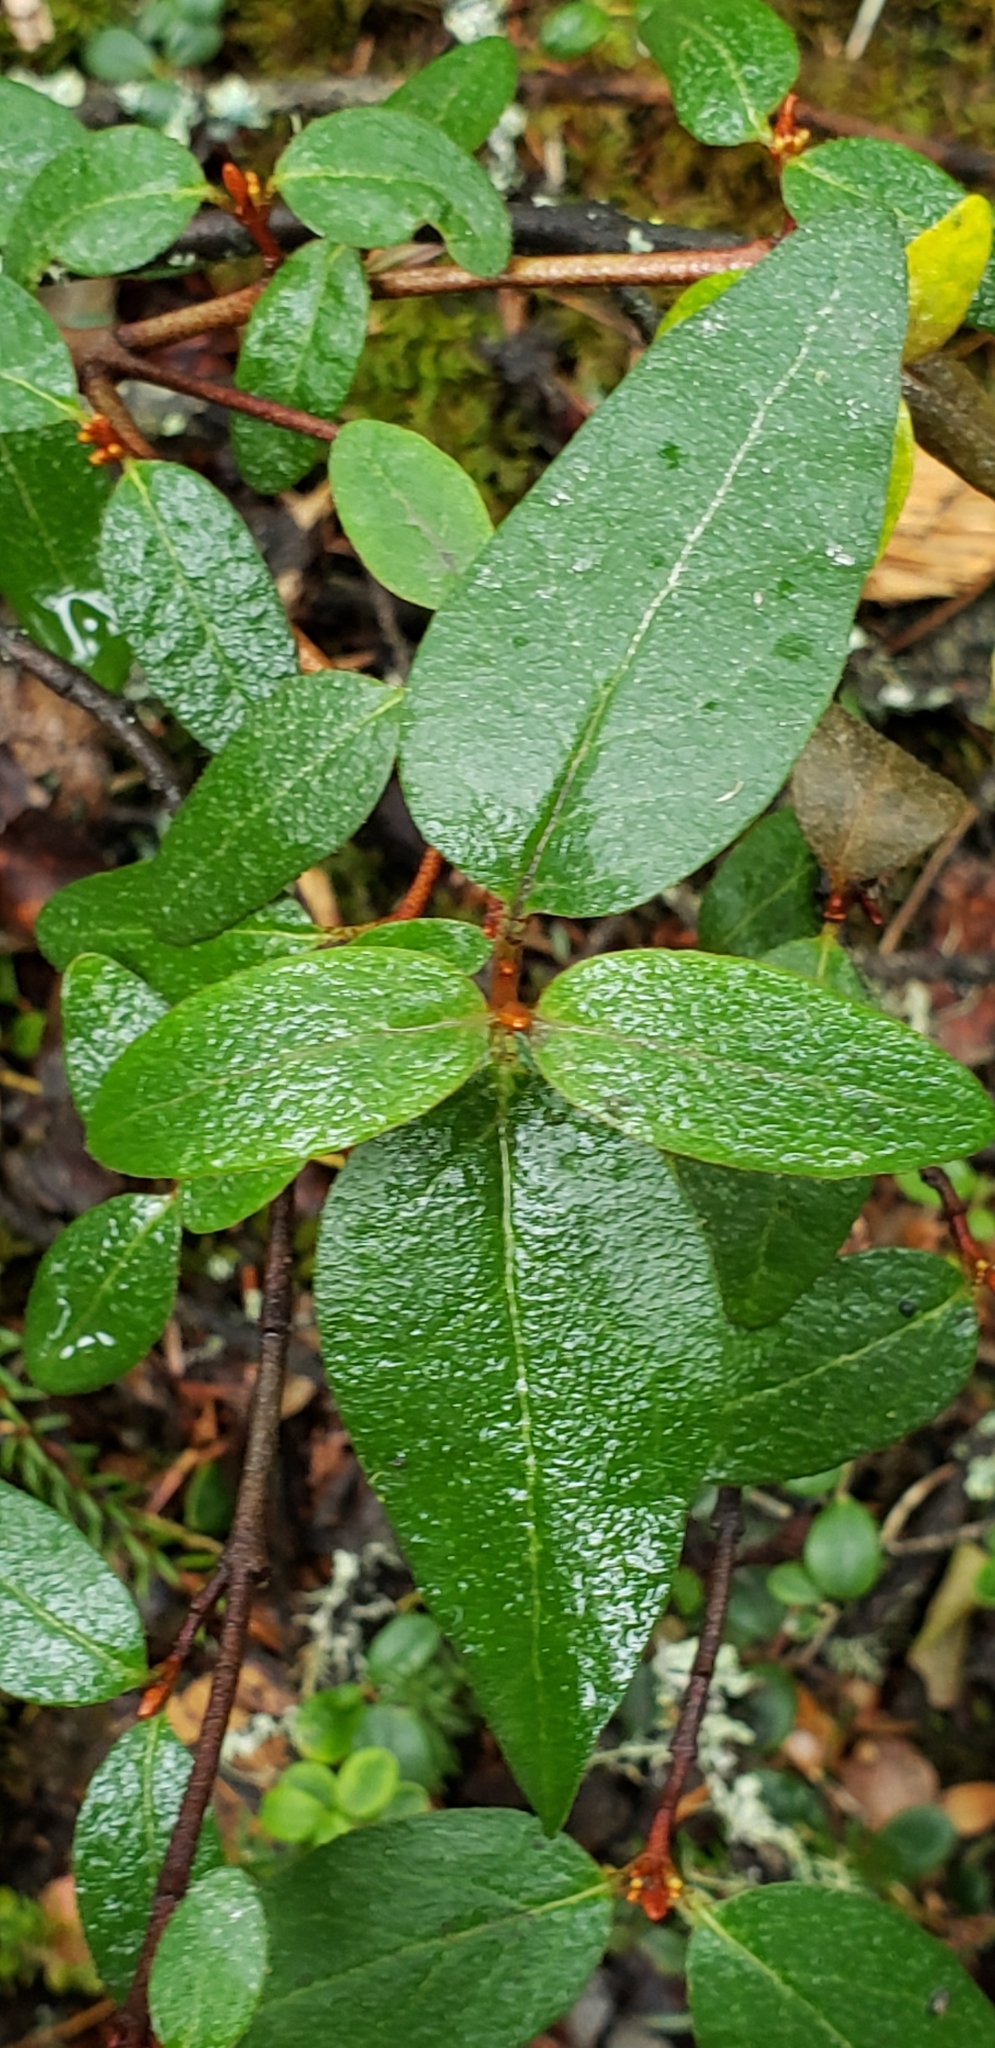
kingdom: Plantae
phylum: Tracheophyta
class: Magnoliopsida
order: Rosales
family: Elaeagnaceae
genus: Shepherdia
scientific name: Shepherdia canadensis
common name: Soapberry
